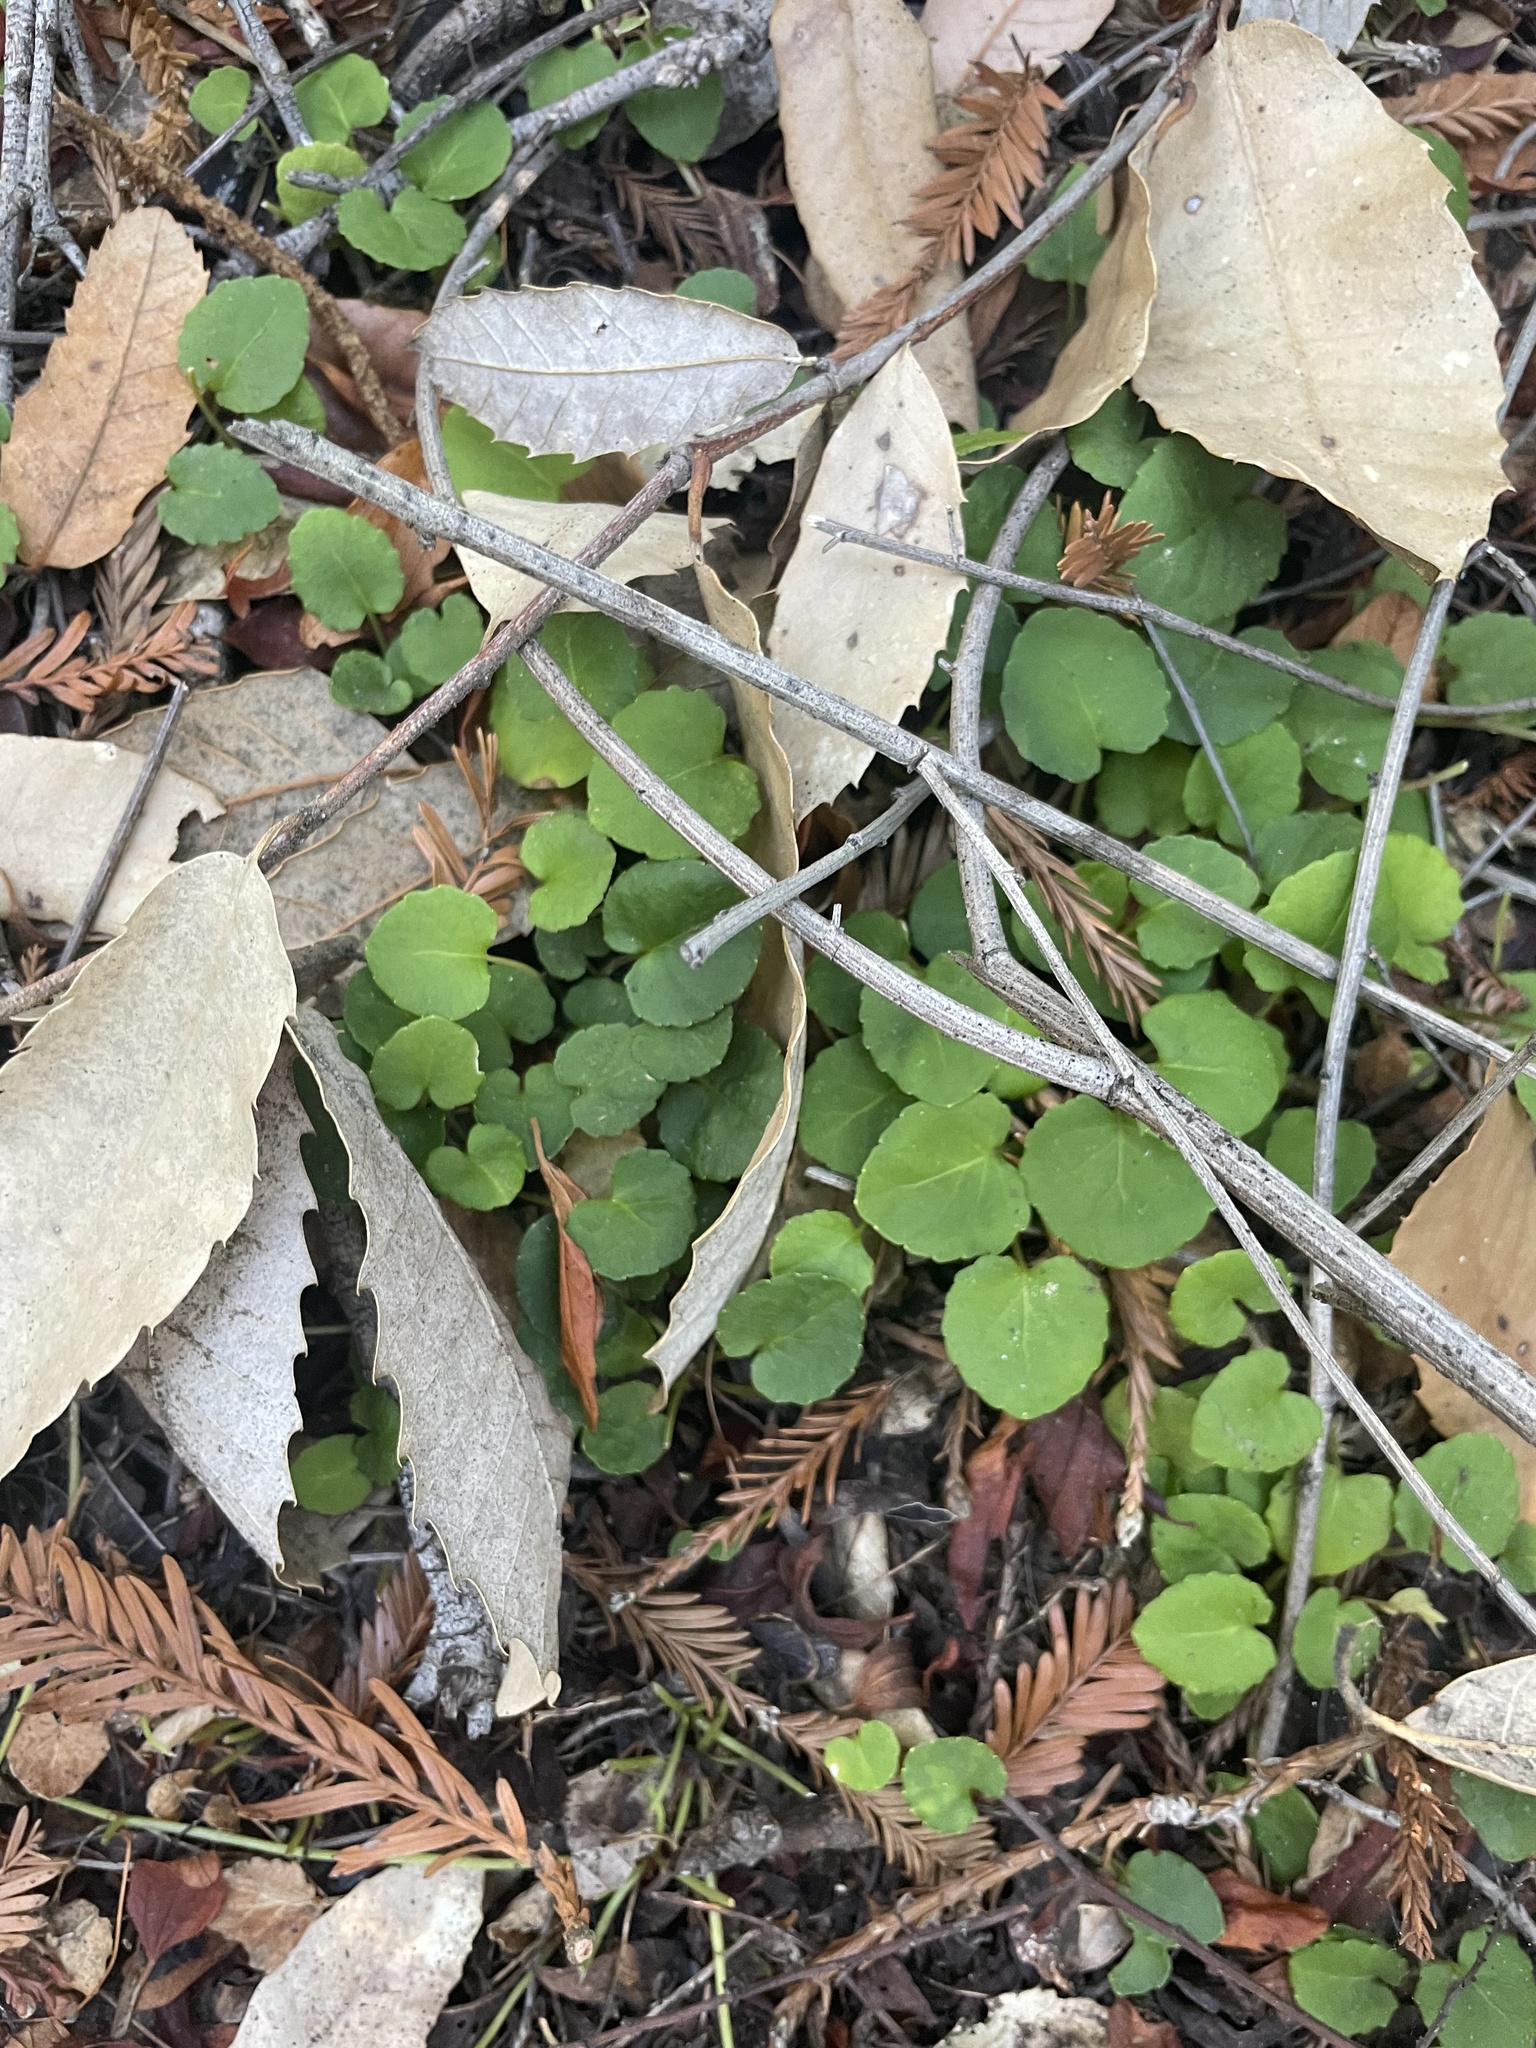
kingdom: Plantae
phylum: Tracheophyta
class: Magnoliopsida
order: Malpighiales
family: Violaceae
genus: Viola
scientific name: Viola sempervirens
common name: Evergreen violet
